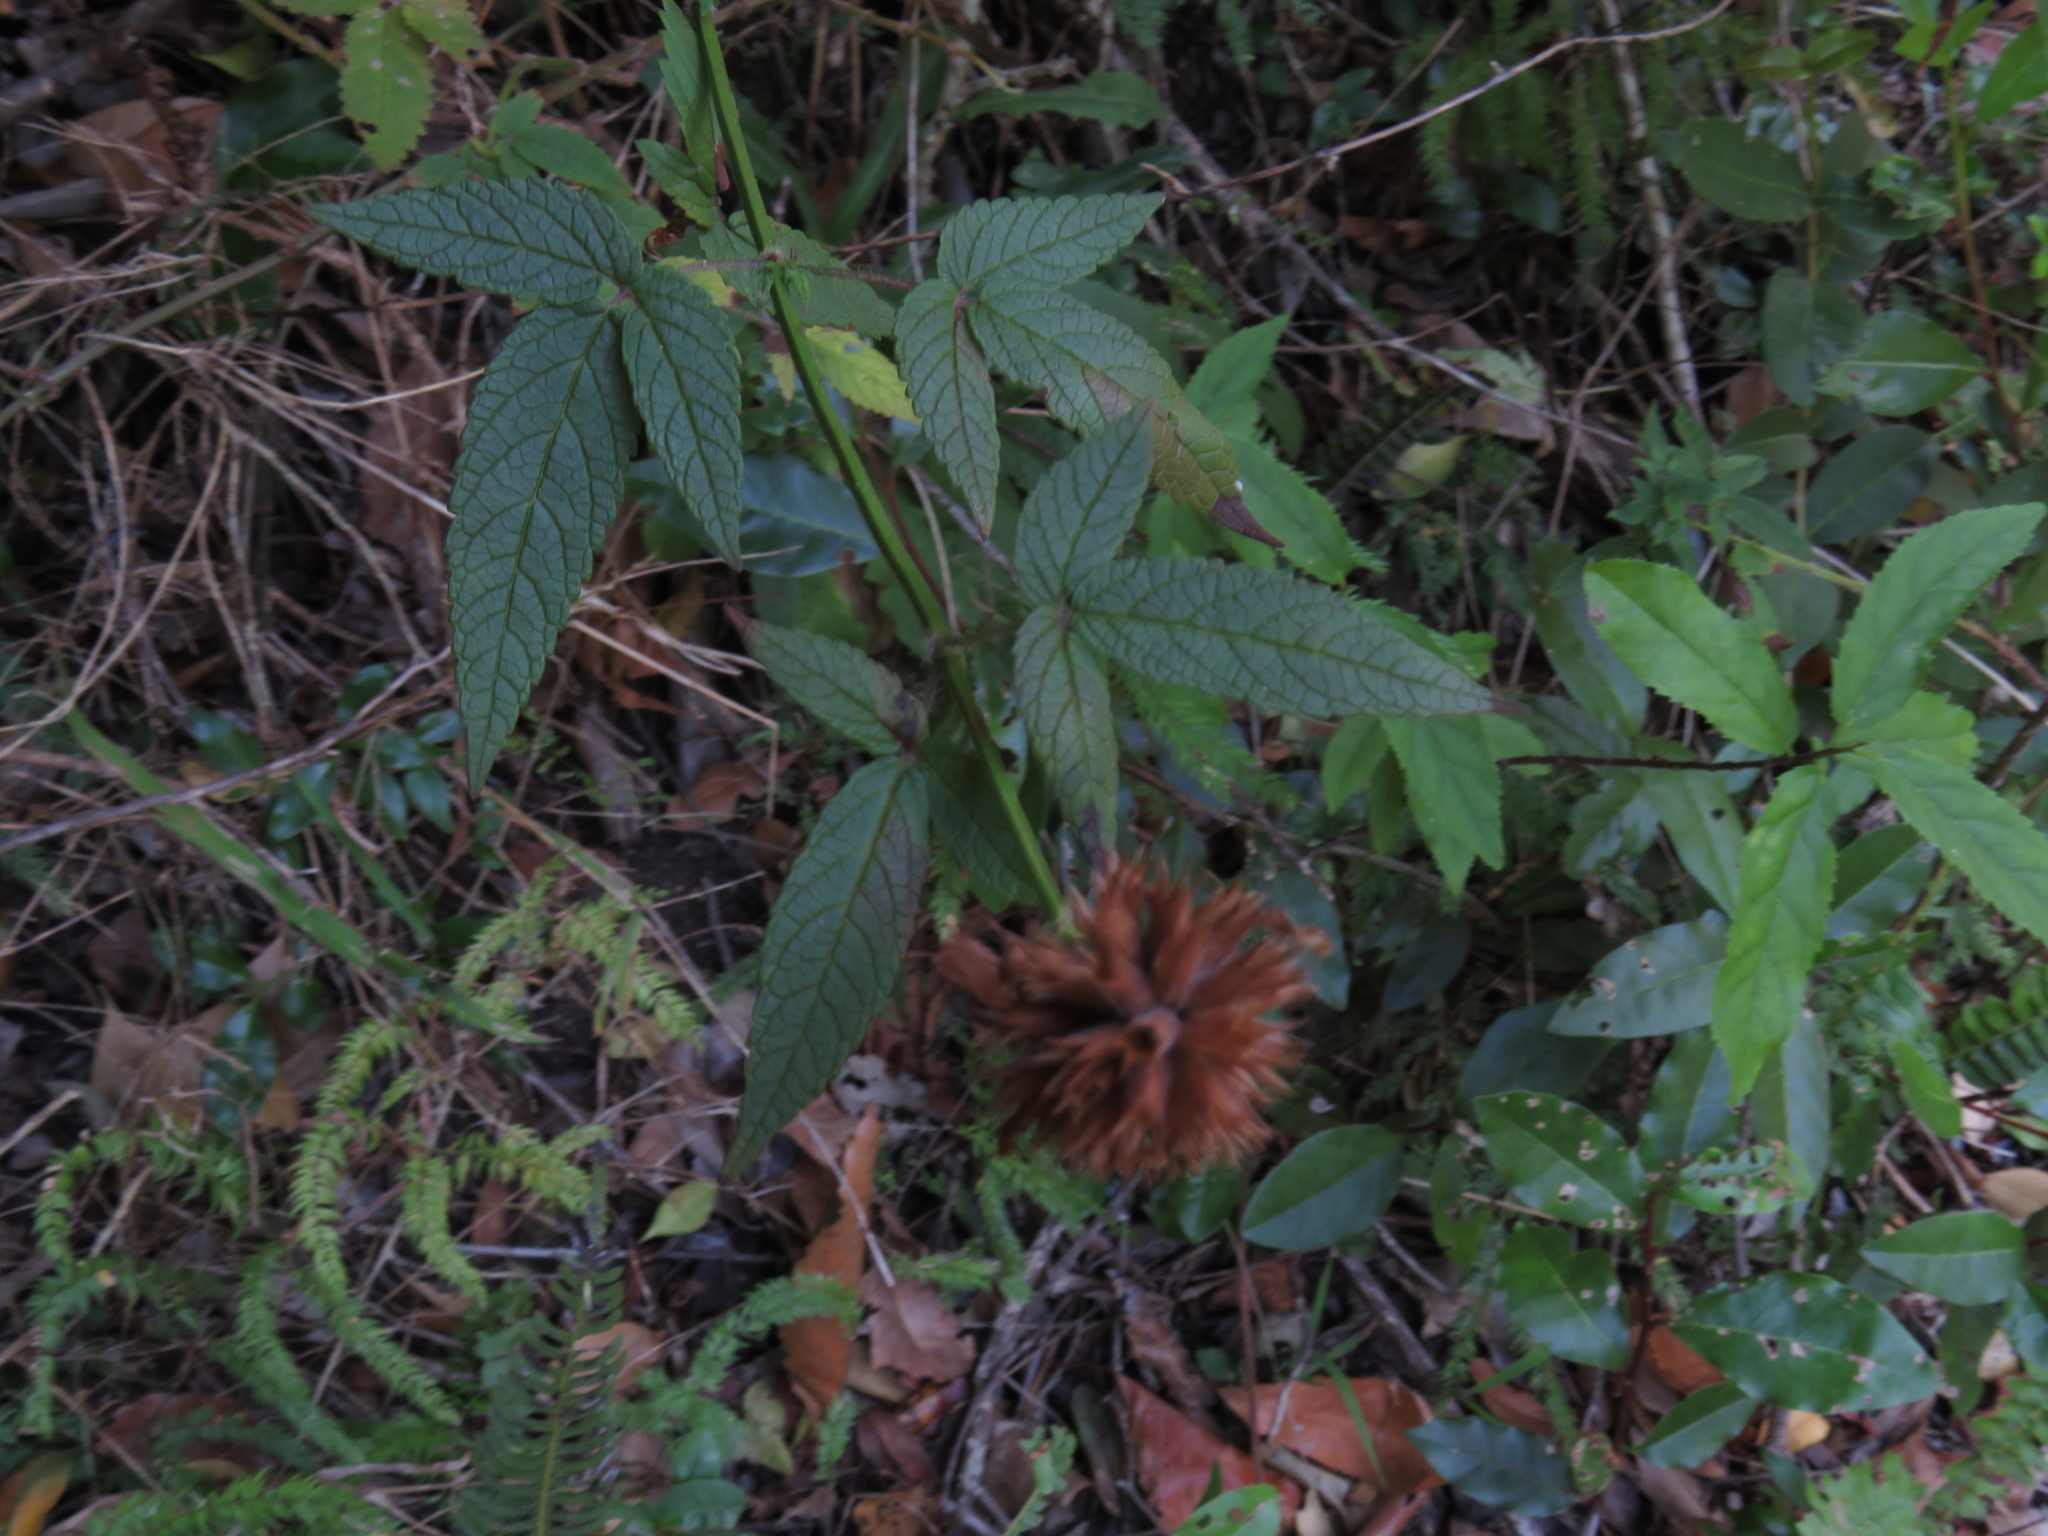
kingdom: Plantae
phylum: Tracheophyta
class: Magnoliopsida
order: Lamiales
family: Lamiaceae
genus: Cedronella
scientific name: Cedronella canariensis
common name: Canary islands balm
